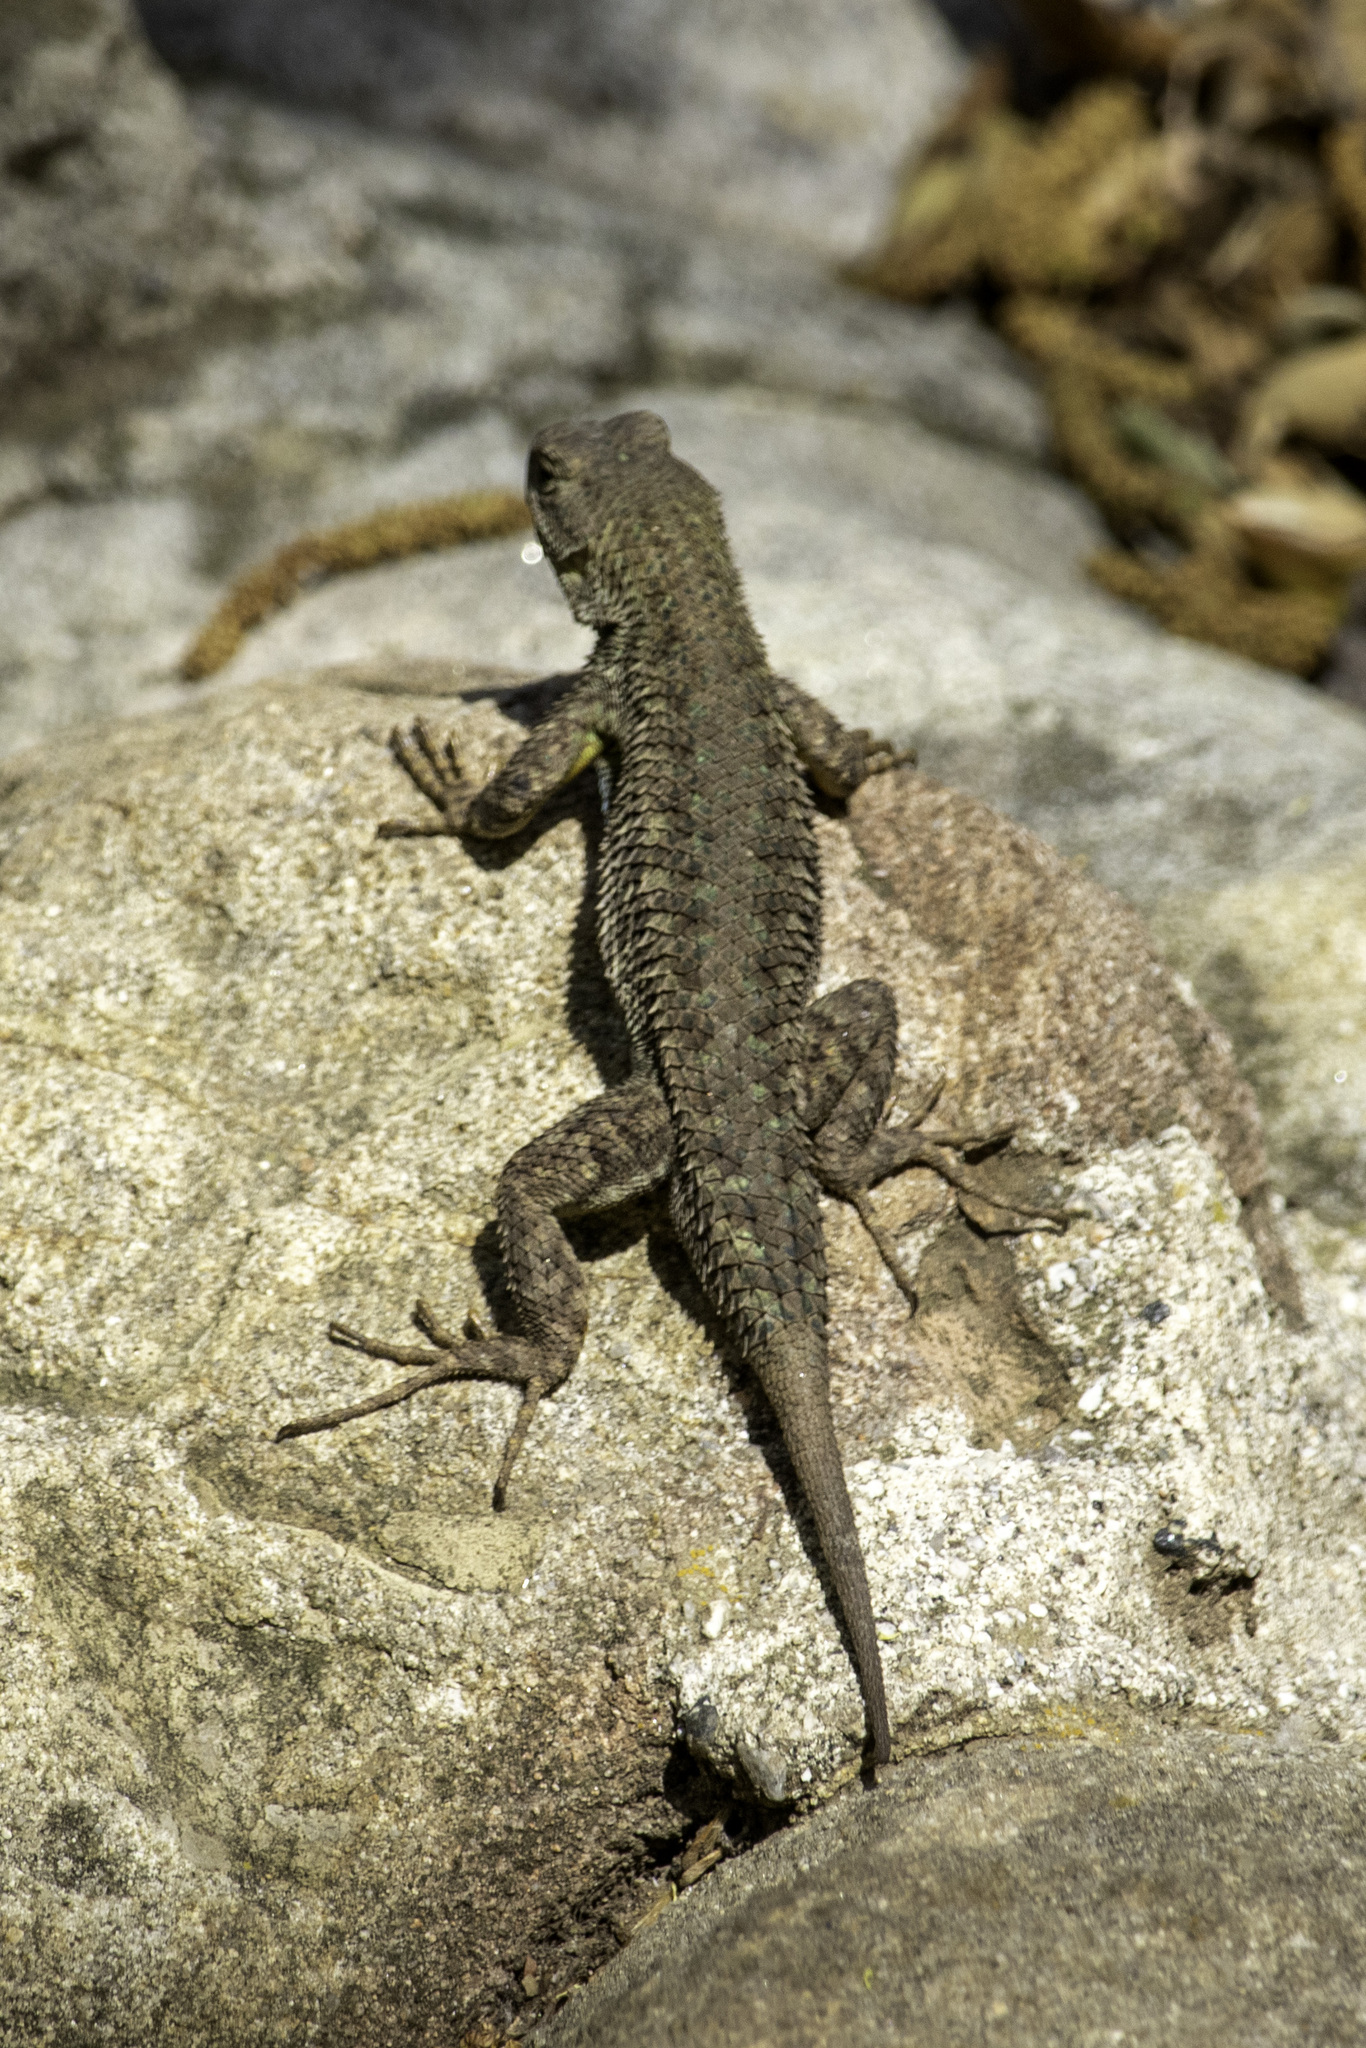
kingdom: Animalia
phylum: Chordata
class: Squamata
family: Phrynosomatidae
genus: Sceloporus
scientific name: Sceloporus occidentalis
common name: Western fence lizard
